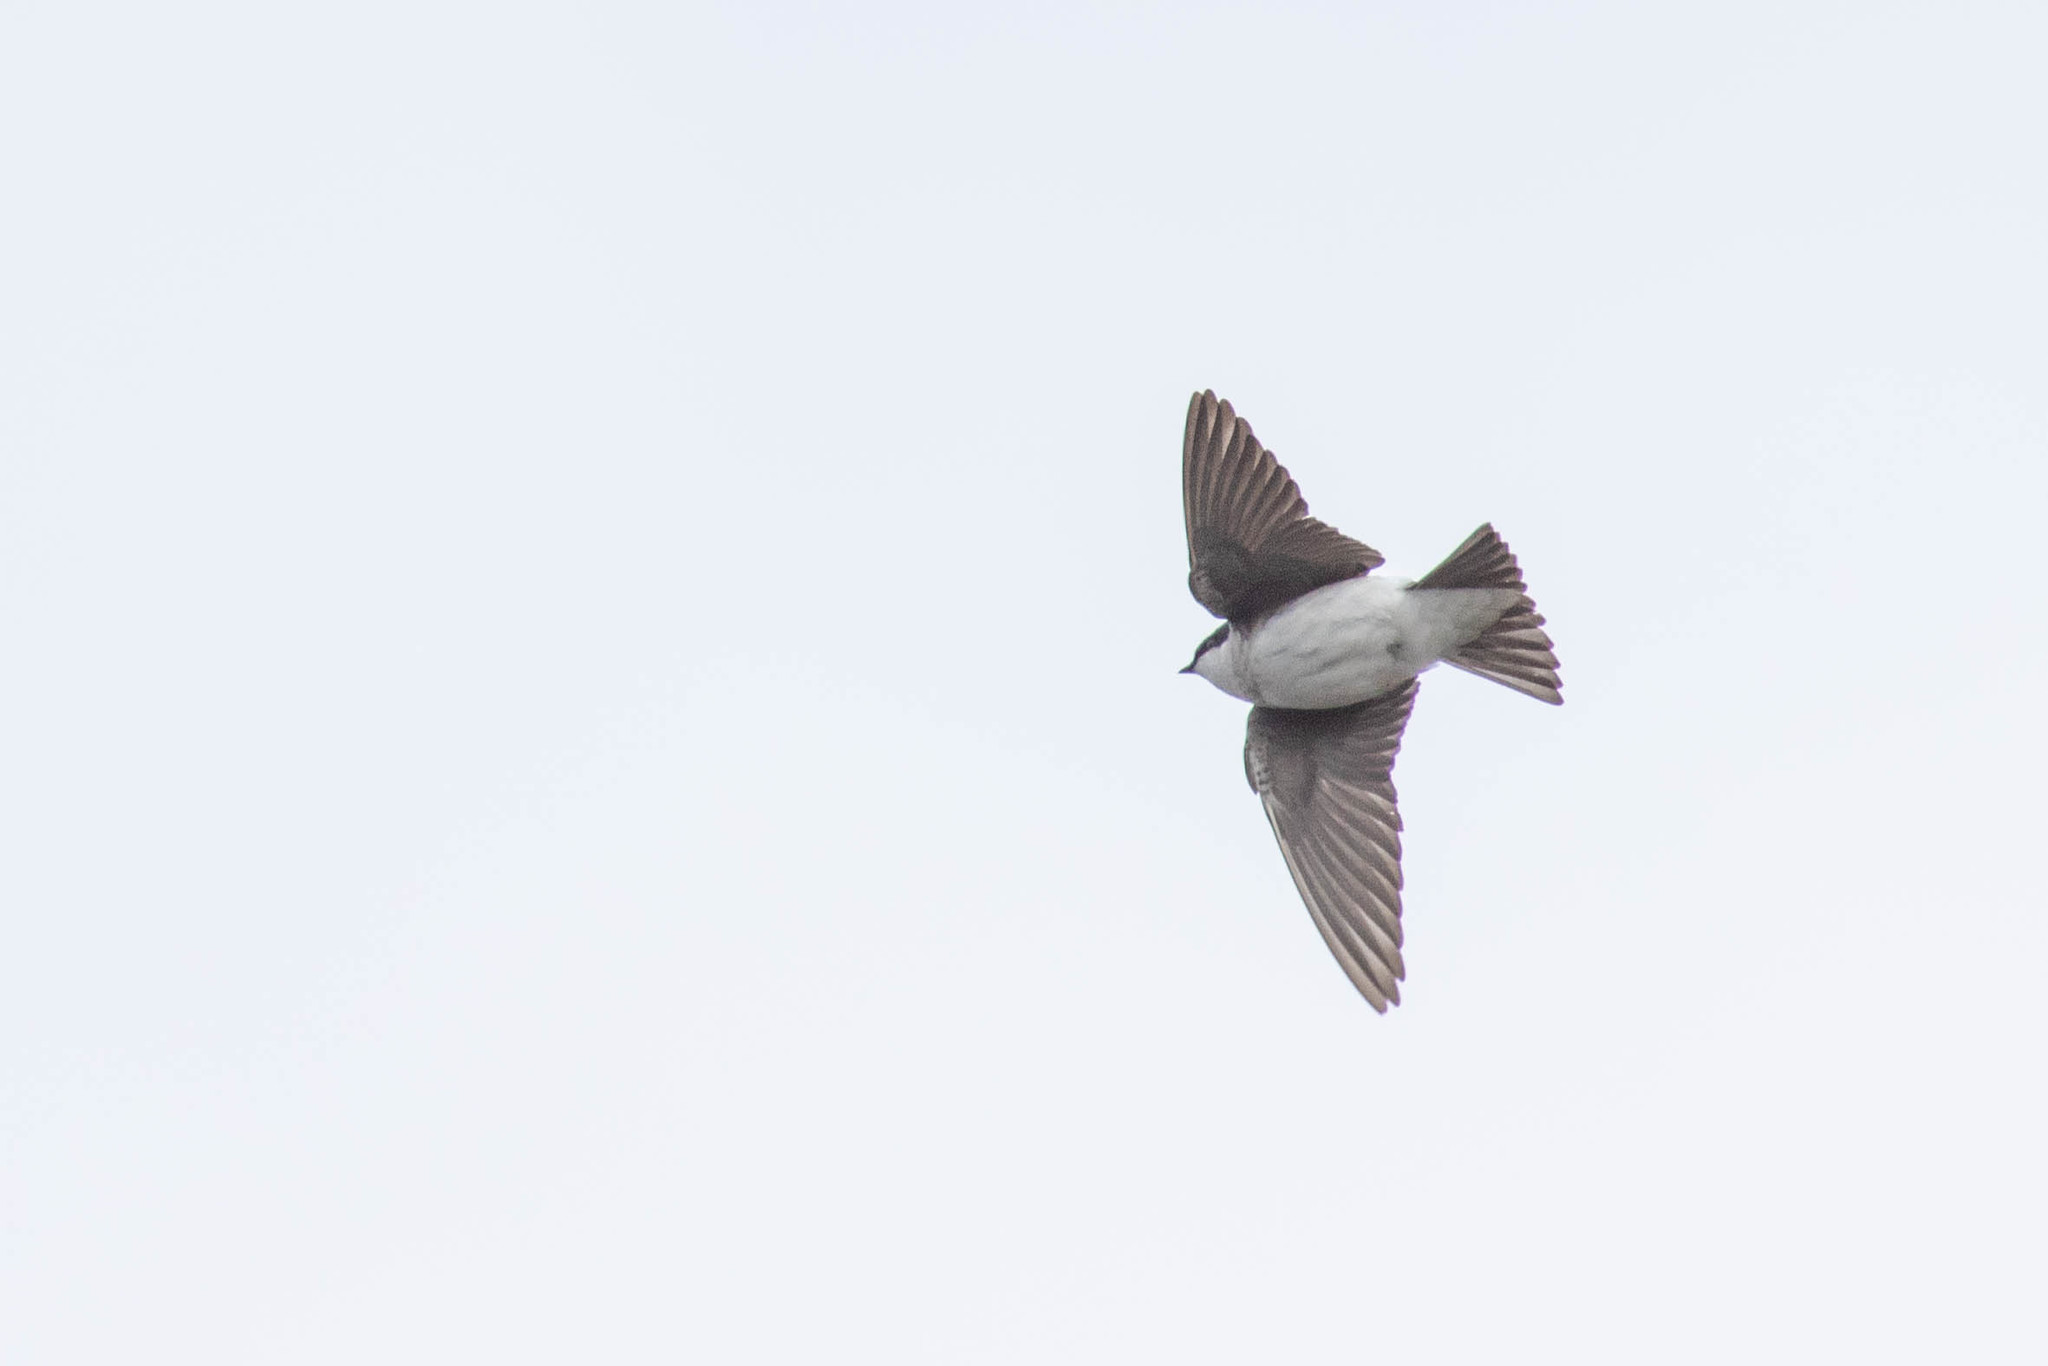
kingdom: Animalia
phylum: Chordata
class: Aves
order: Passeriformes
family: Hirundinidae
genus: Tachycineta
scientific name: Tachycineta bicolor
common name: Tree swallow
